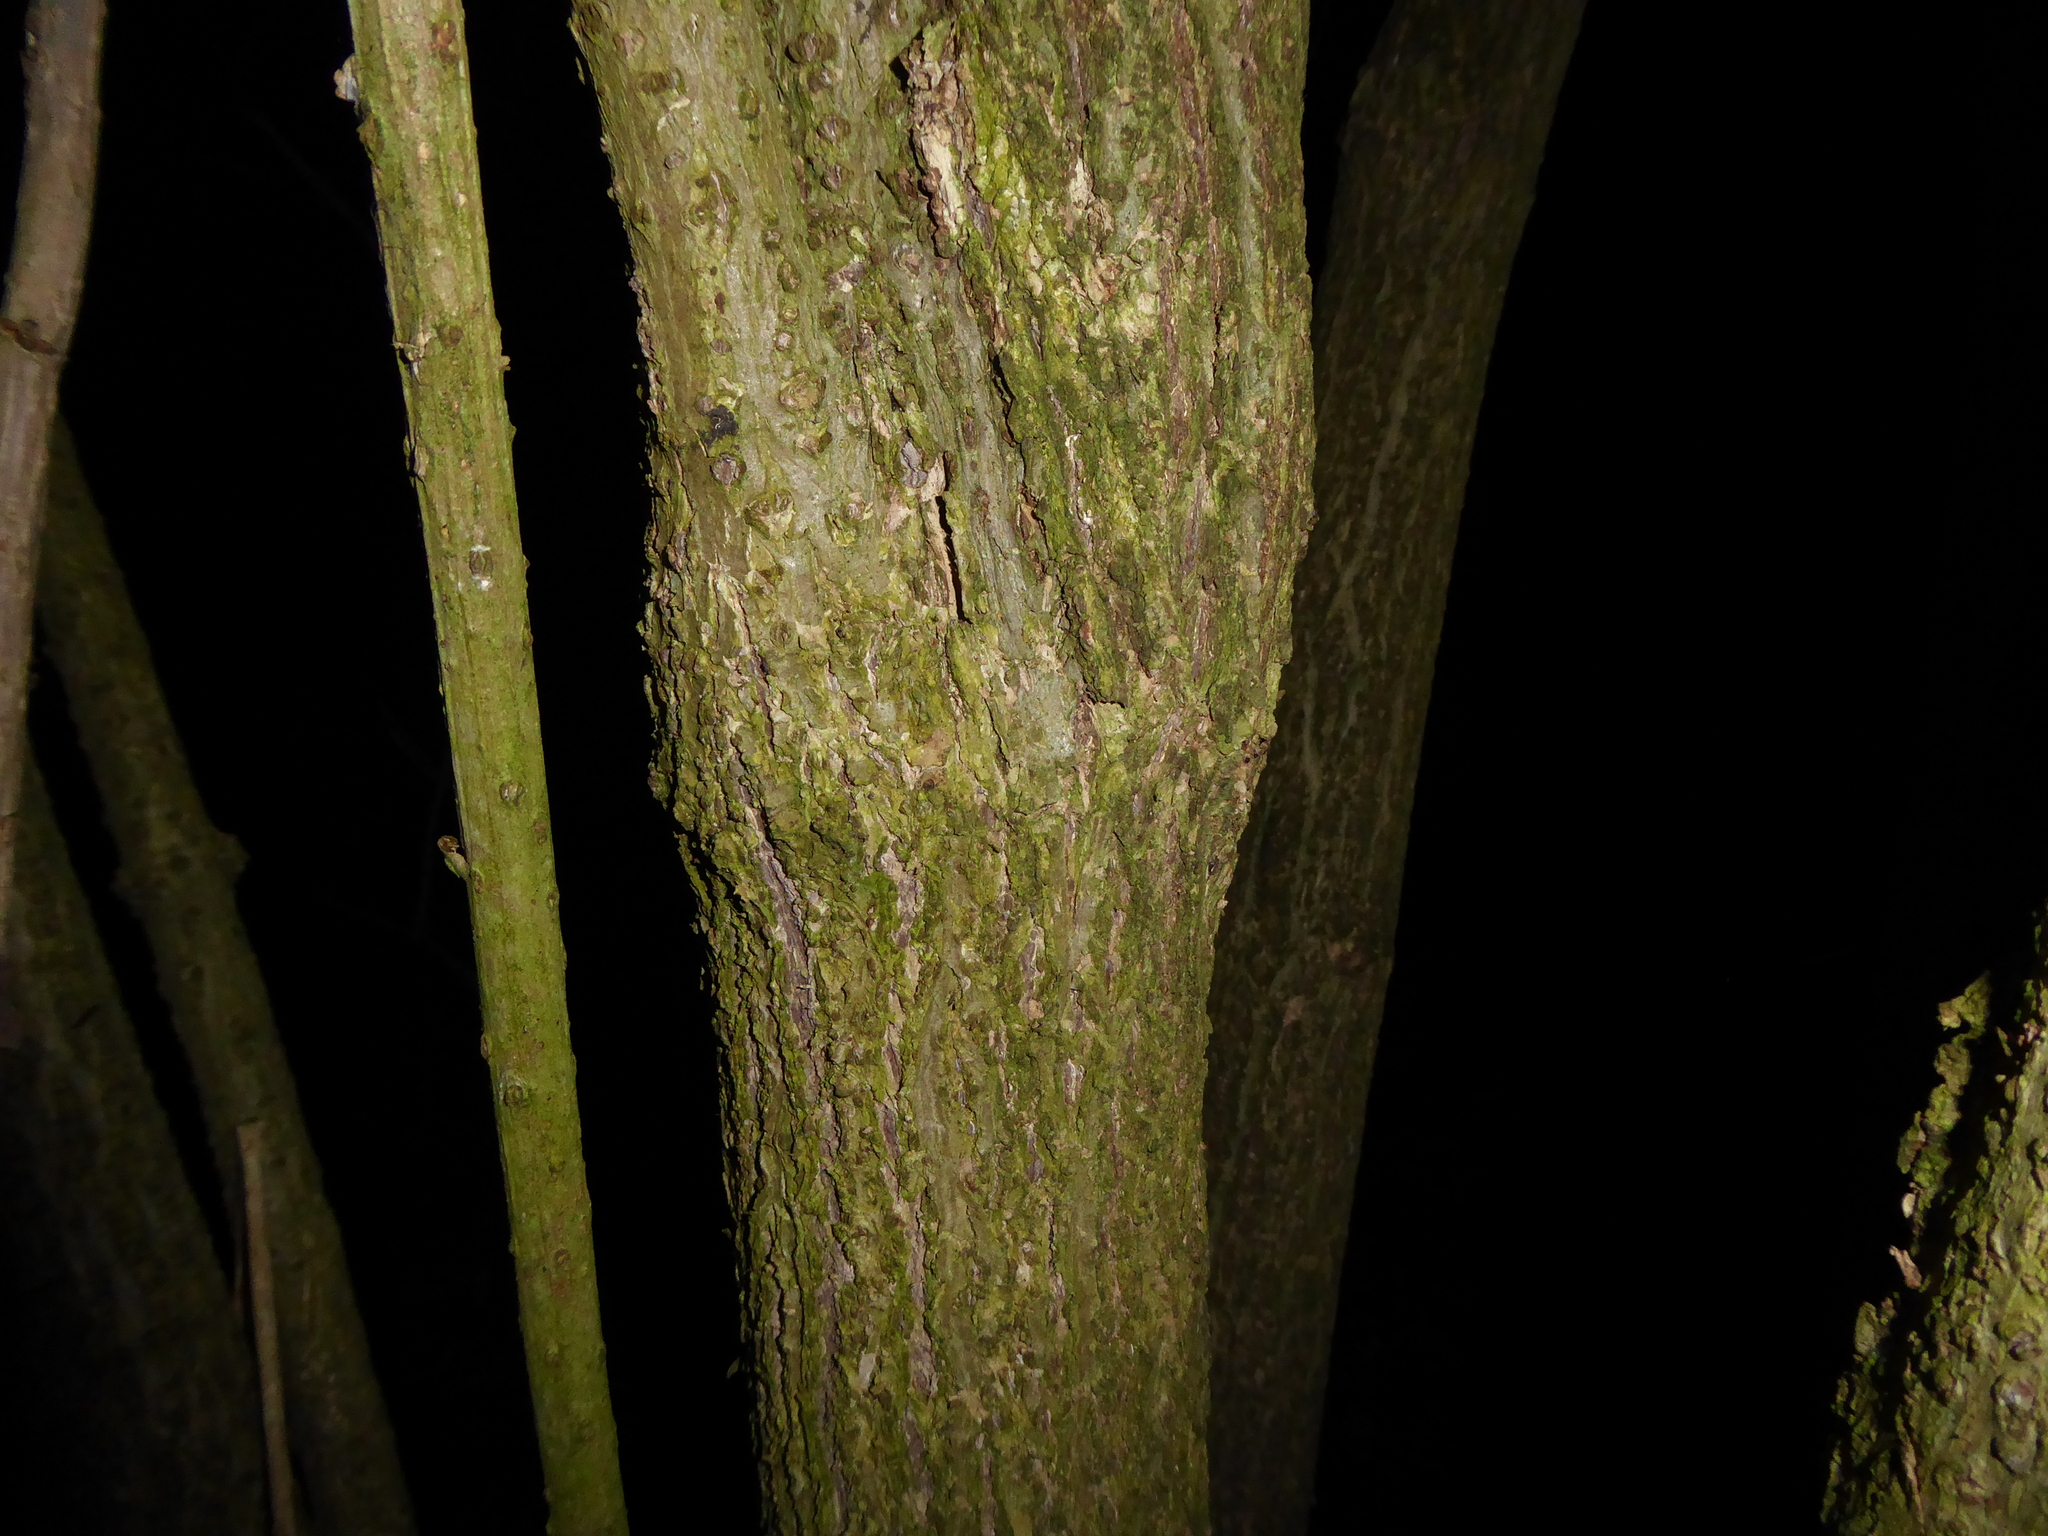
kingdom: Plantae
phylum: Tracheophyta
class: Magnoliopsida
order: Dipsacales
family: Viburnaceae
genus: Sambucus
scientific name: Sambucus nigra
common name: Elder
